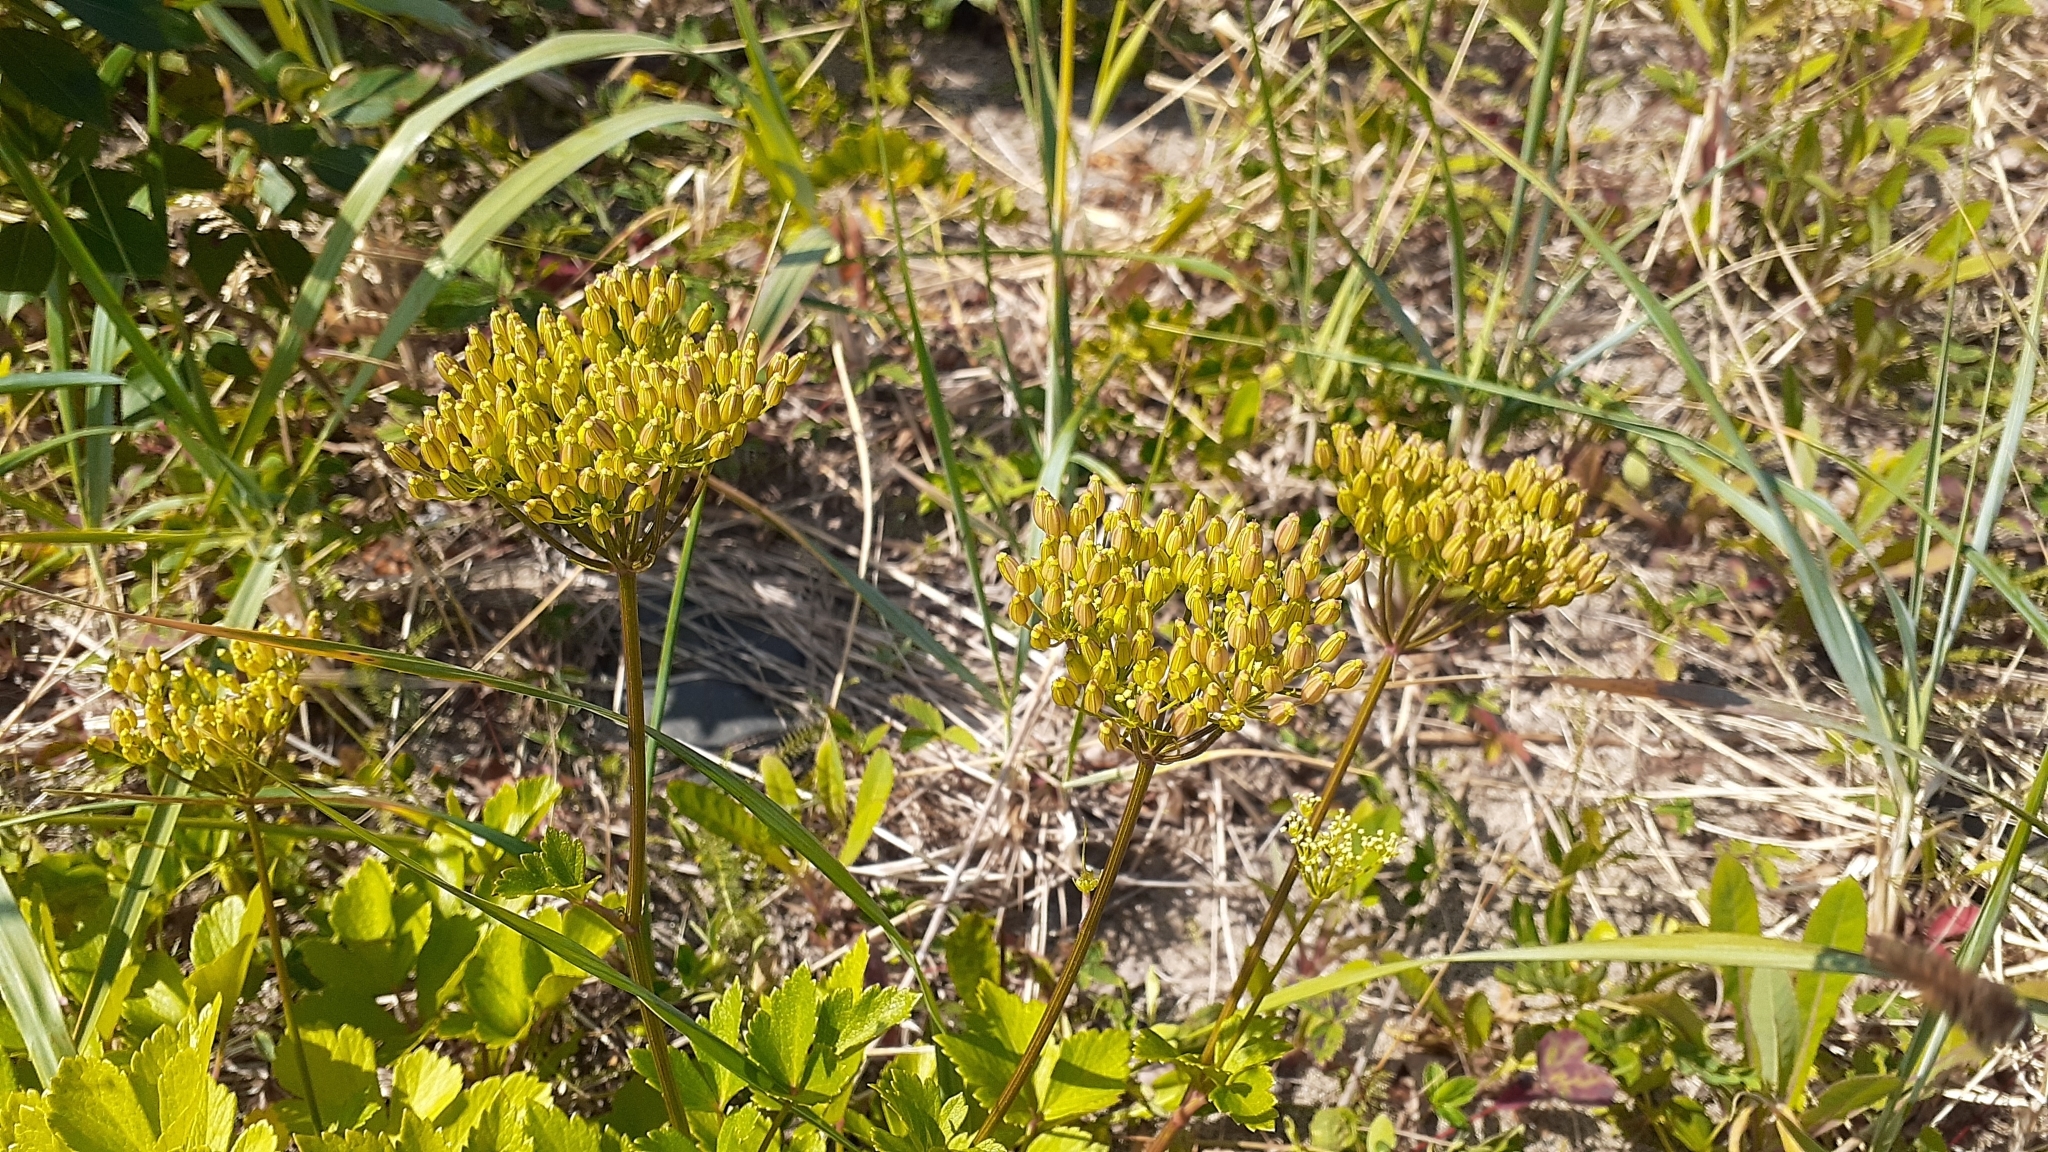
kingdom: Plantae
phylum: Tracheophyta
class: Magnoliopsida
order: Apiales
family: Apiaceae
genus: Ligusticum
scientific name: Ligusticum scothicum
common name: Beach lovage
